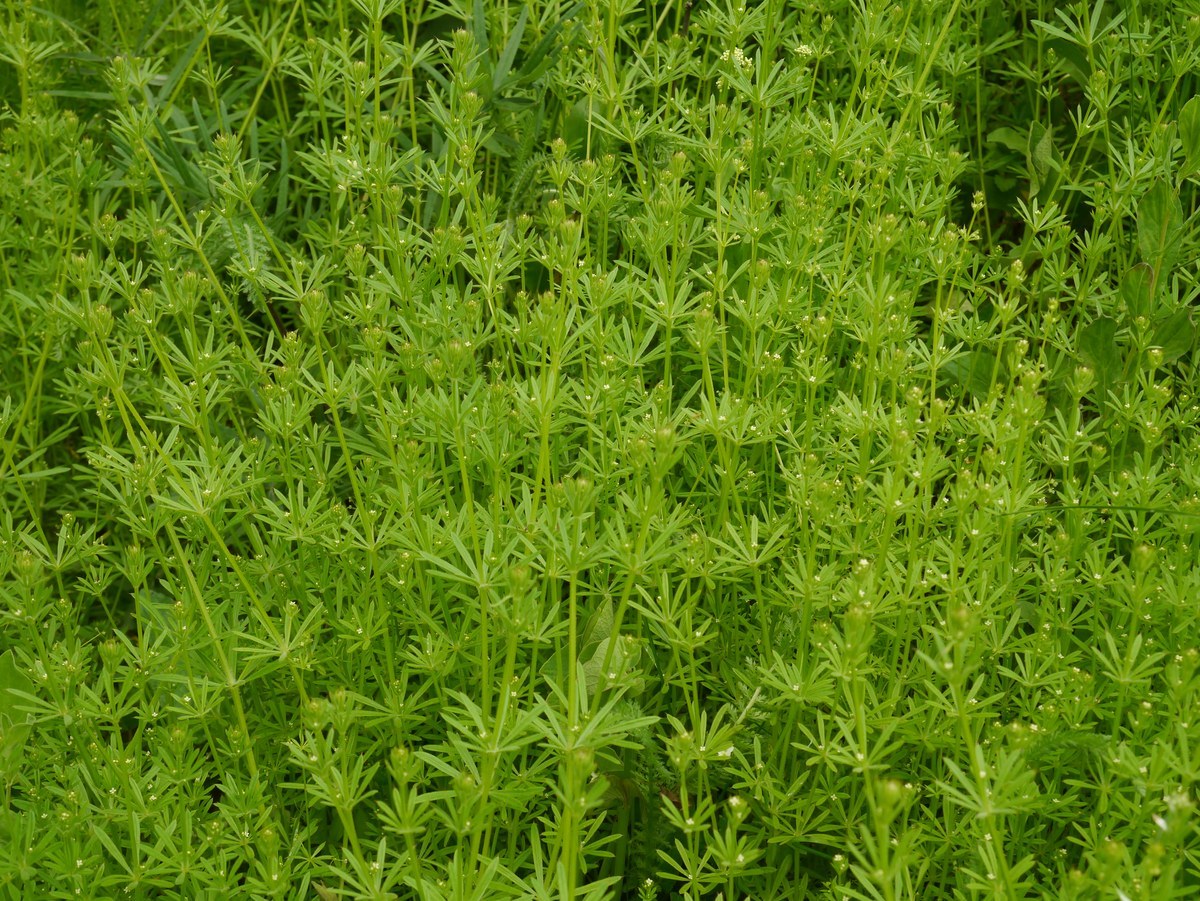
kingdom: Plantae
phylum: Tracheophyta
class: Magnoliopsida
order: Gentianales
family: Rubiaceae
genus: Galium
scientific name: Galium aparine
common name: Cleavers
